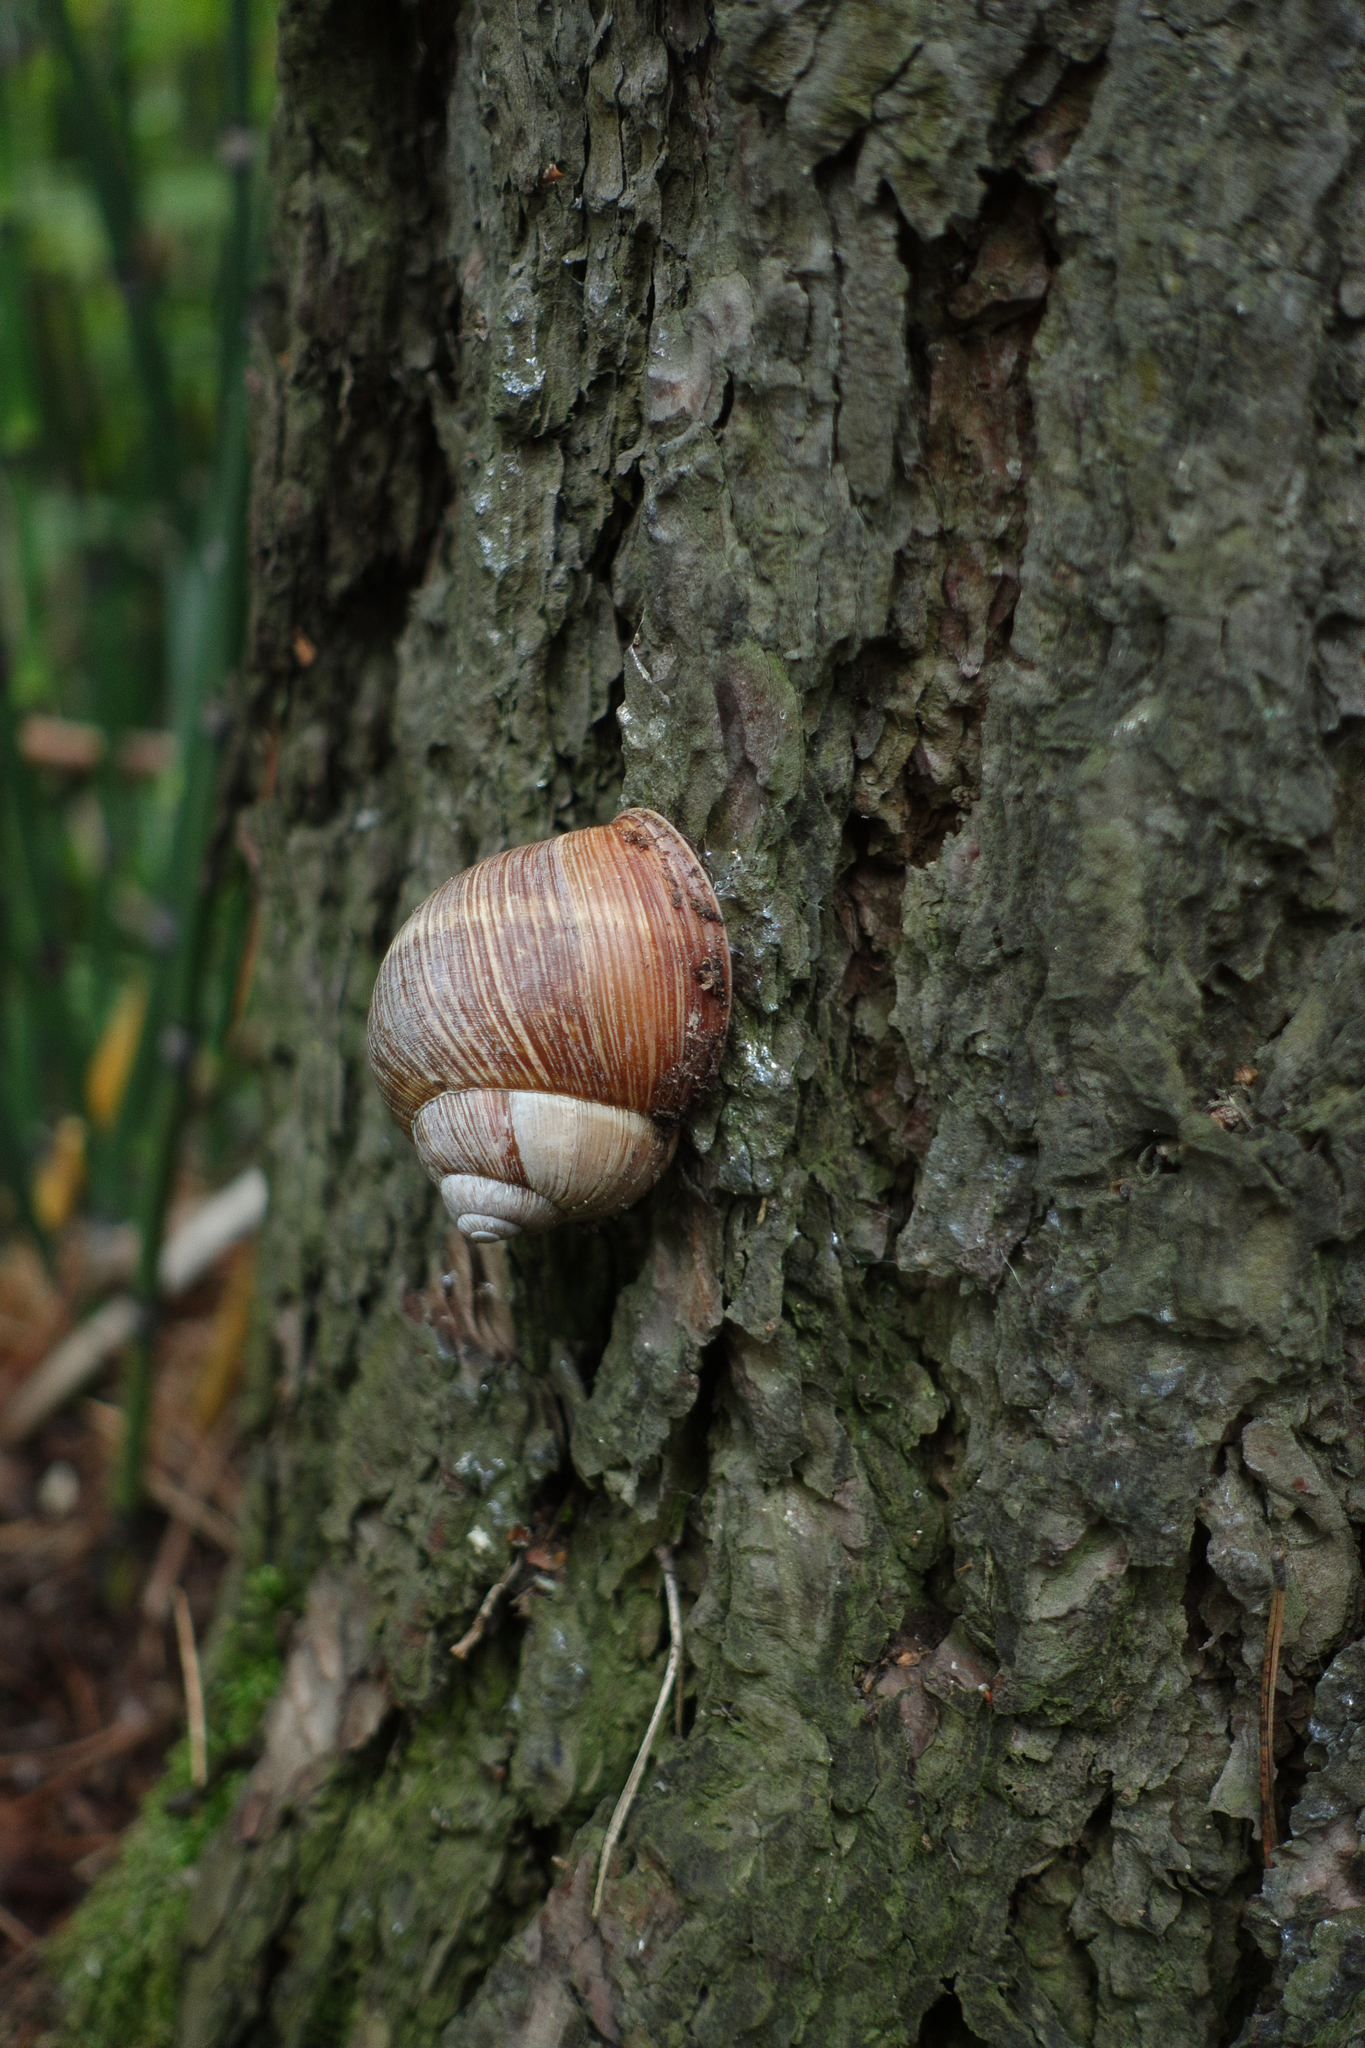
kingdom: Animalia
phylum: Mollusca
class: Gastropoda
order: Stylommatophora
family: Helicidae
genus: Helix
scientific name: Helix pomatia
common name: Roman snail
